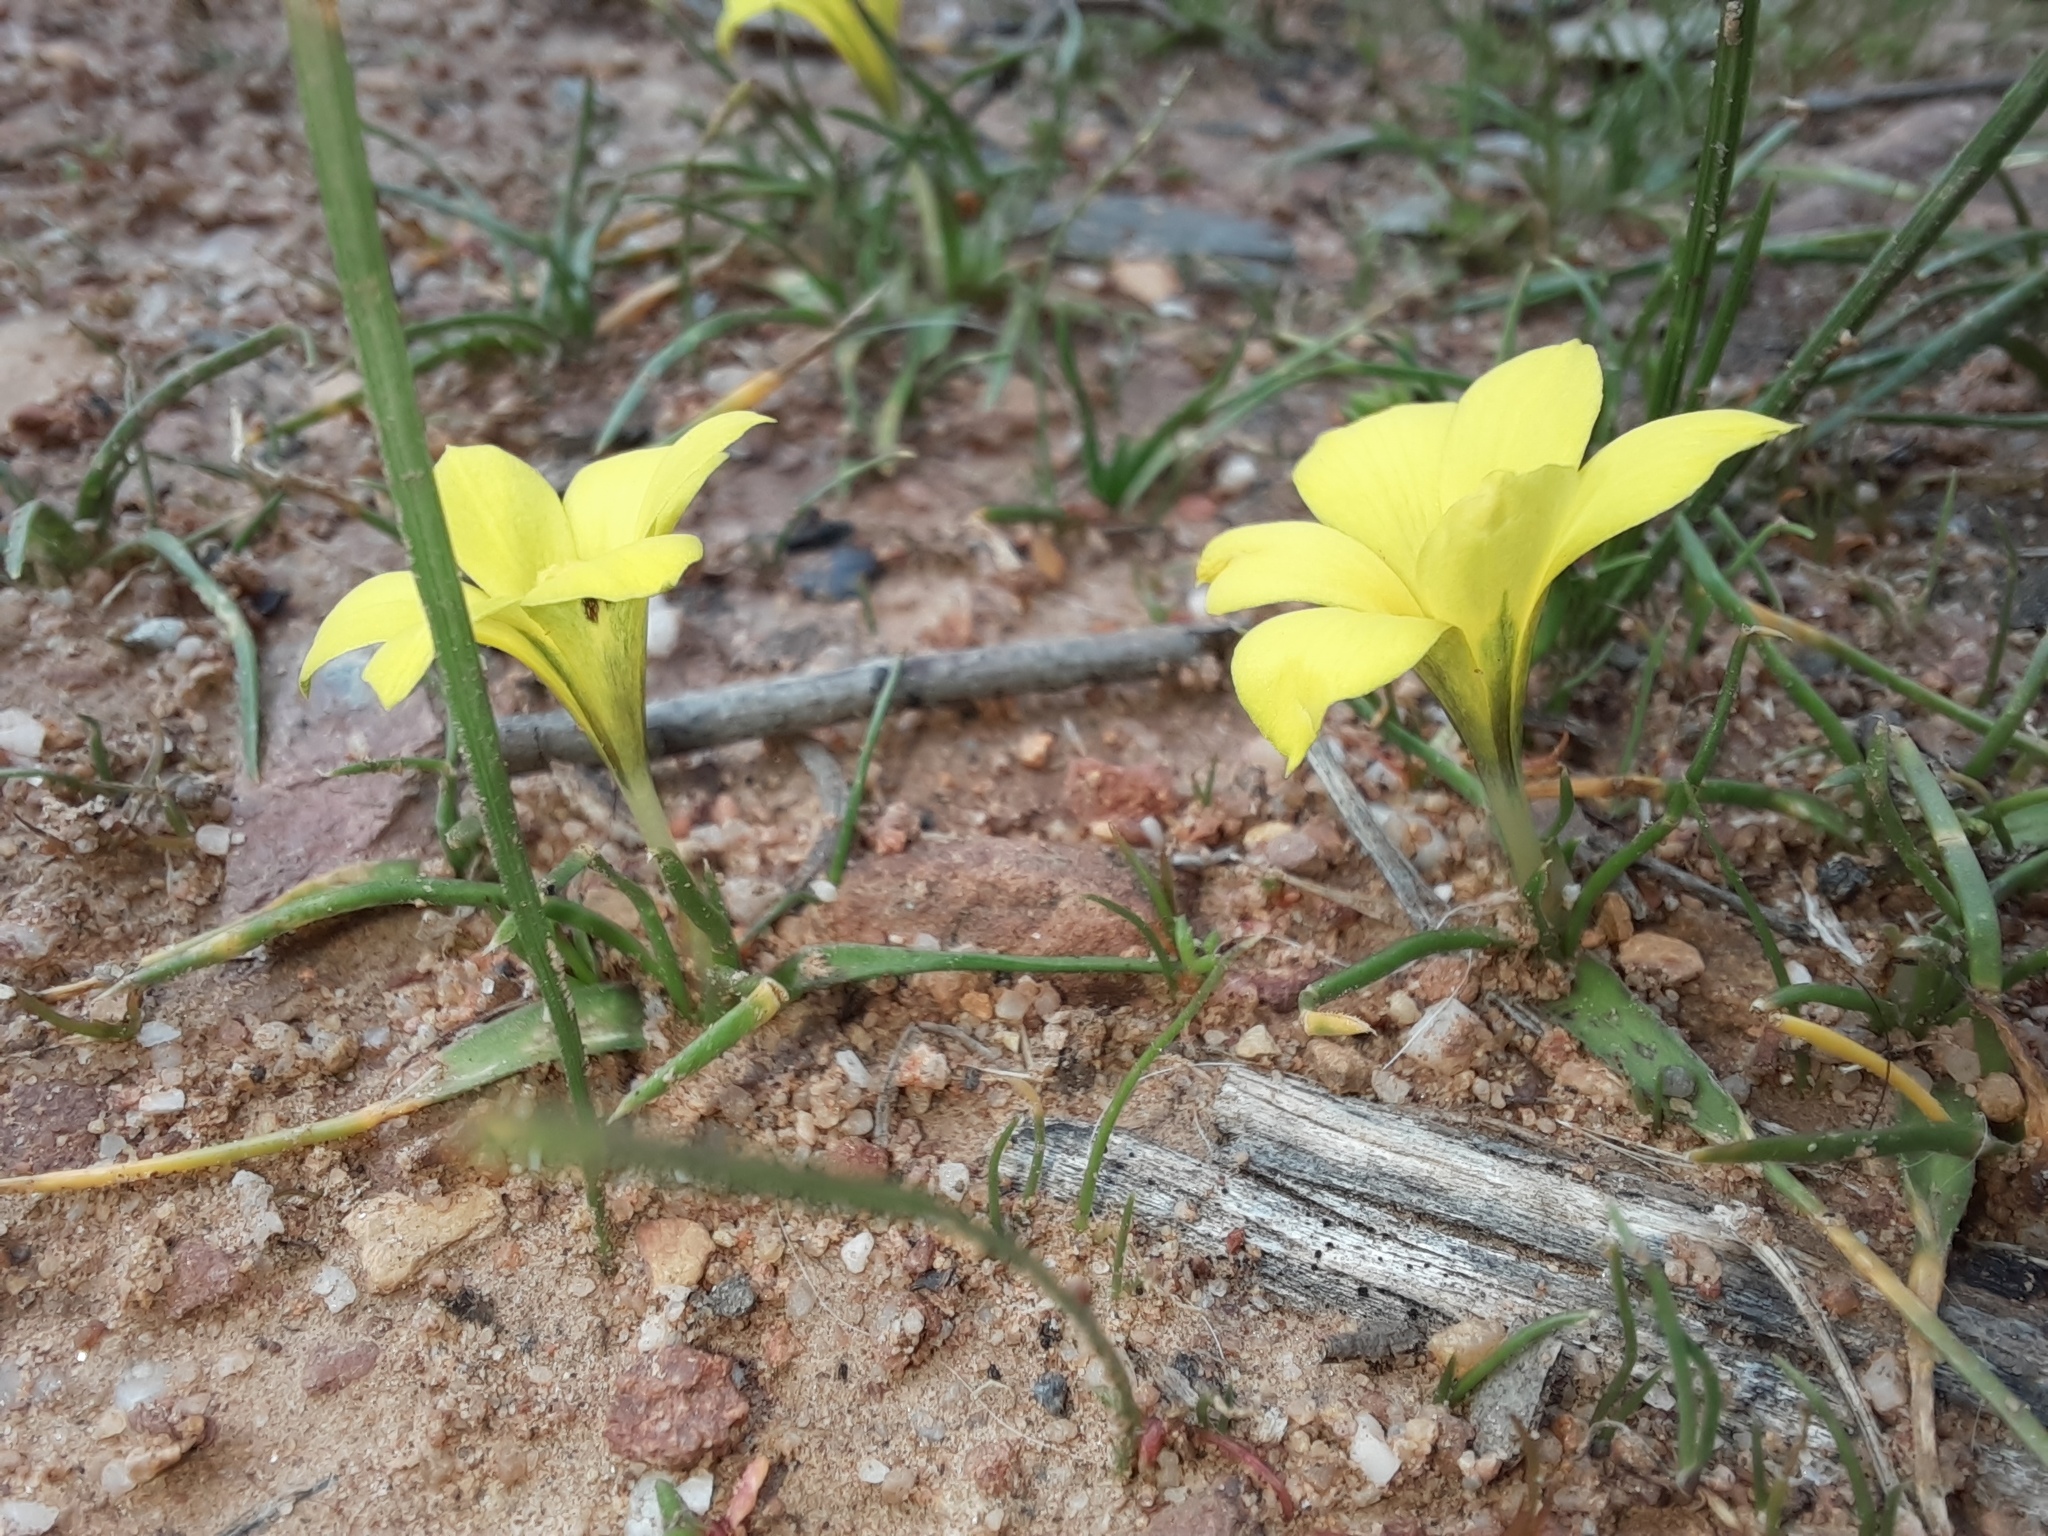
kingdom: Plantae
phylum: Tracheophyta
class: Liliopsida
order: Asparagales
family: Iridaceae
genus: Moraea
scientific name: Moraea fugacissima
